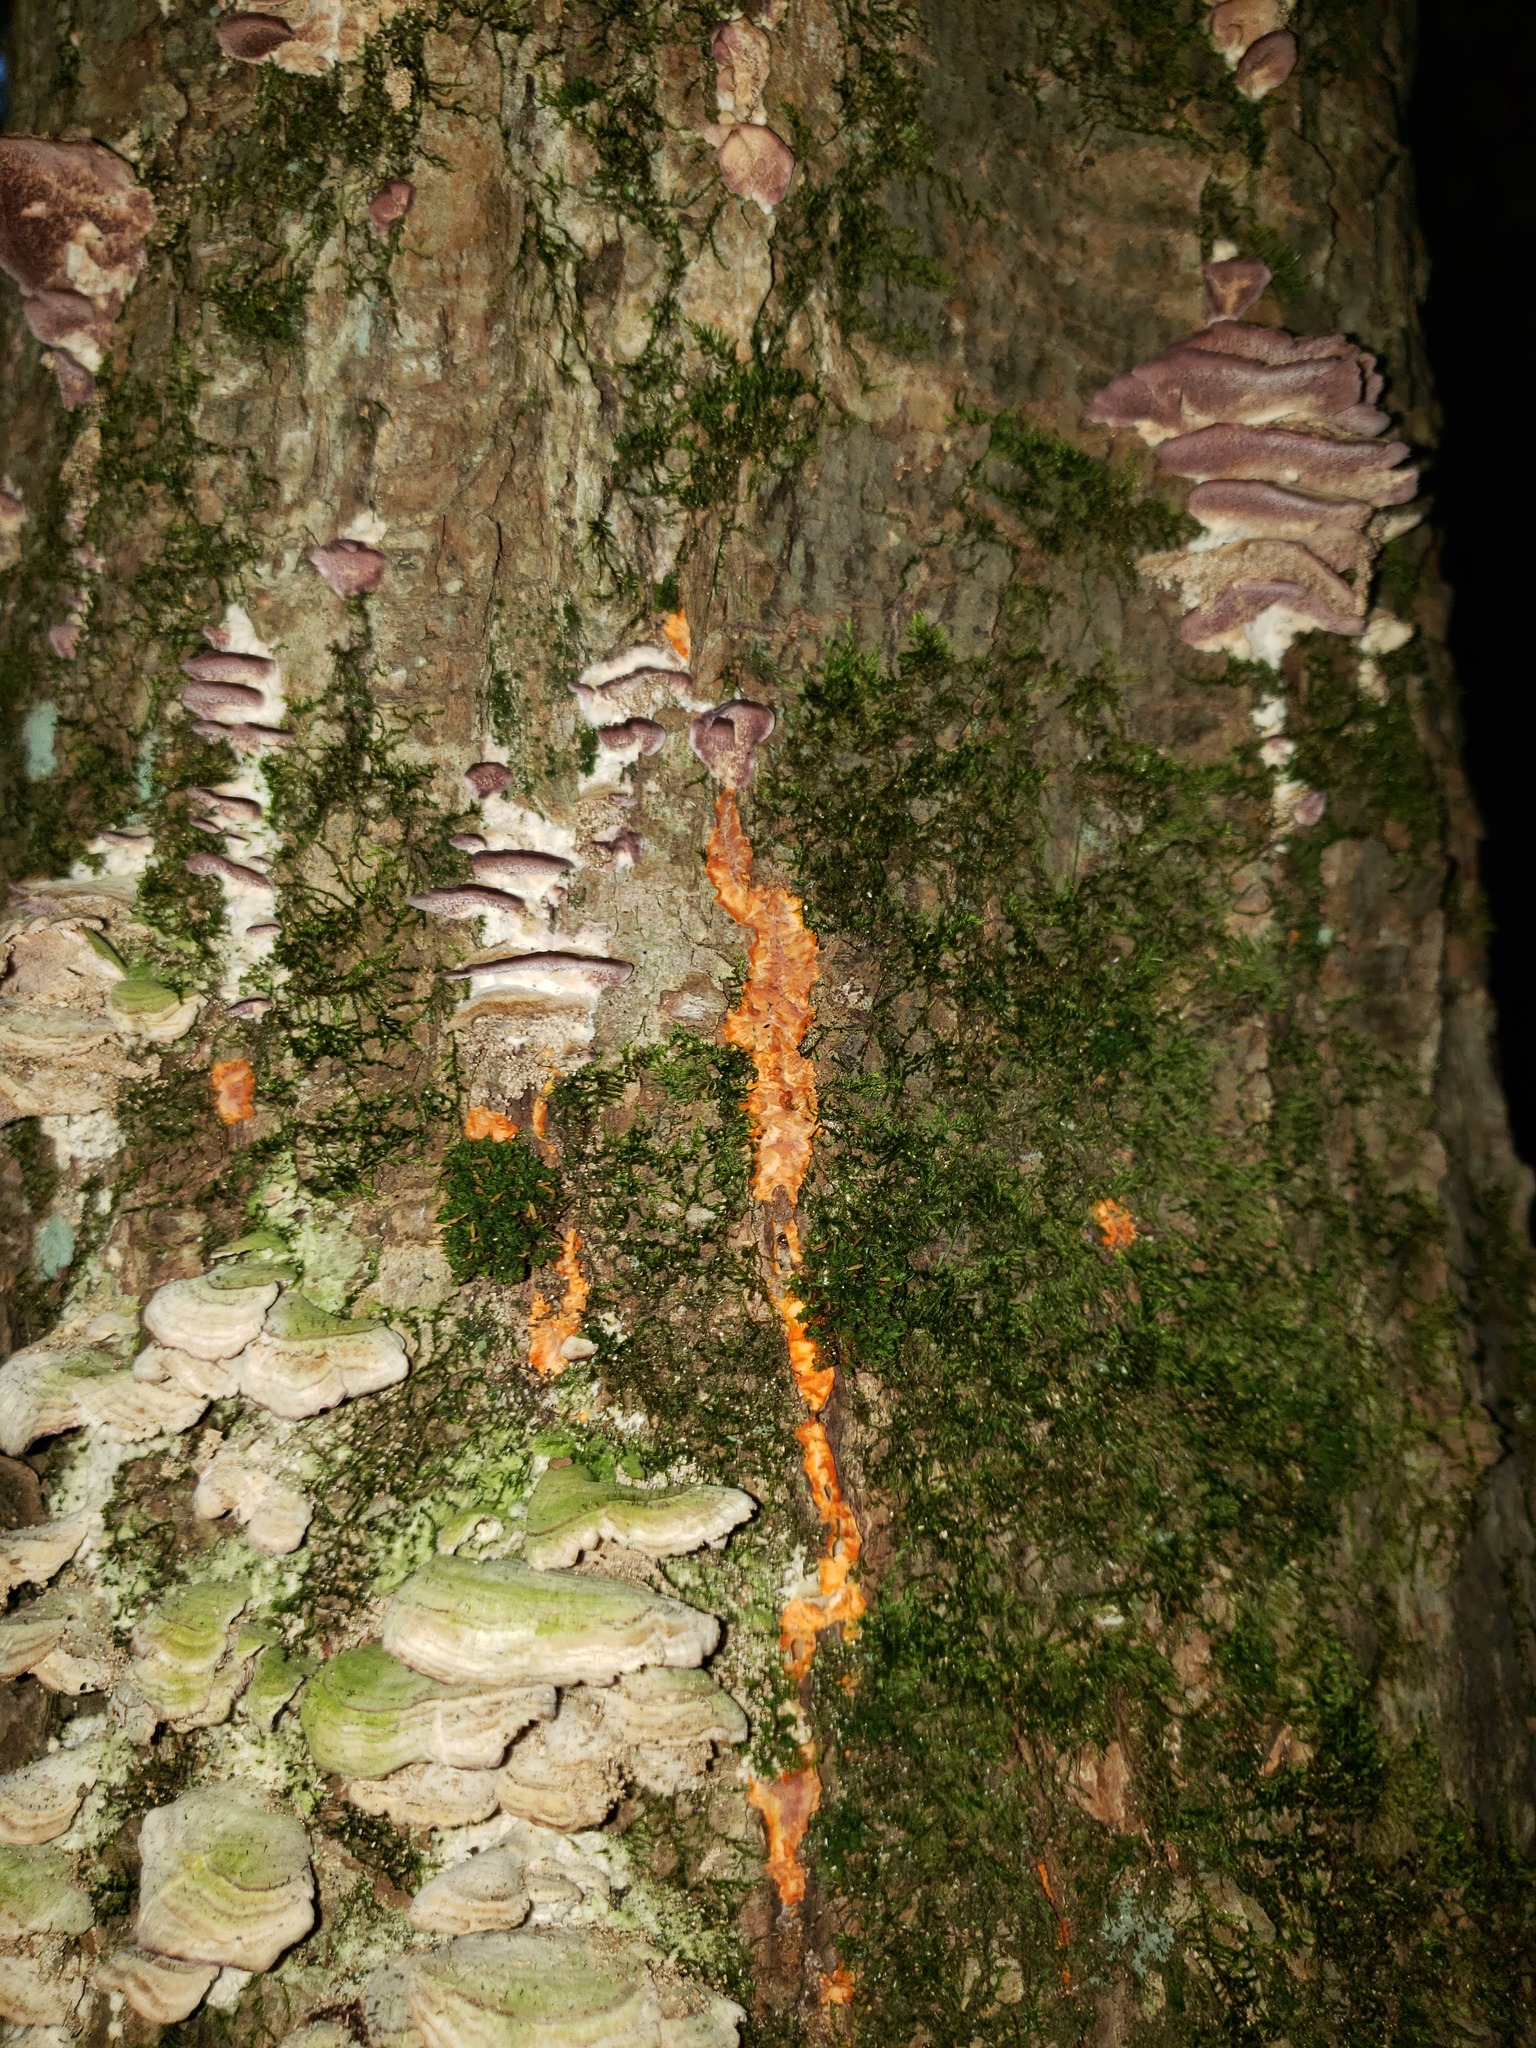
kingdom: Fungi
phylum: Basidiomycota
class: Agaricomycetes
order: Polyporales
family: Meruliaceae
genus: Phlebia
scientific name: Phlebia radiata
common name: Wrinkled crust
